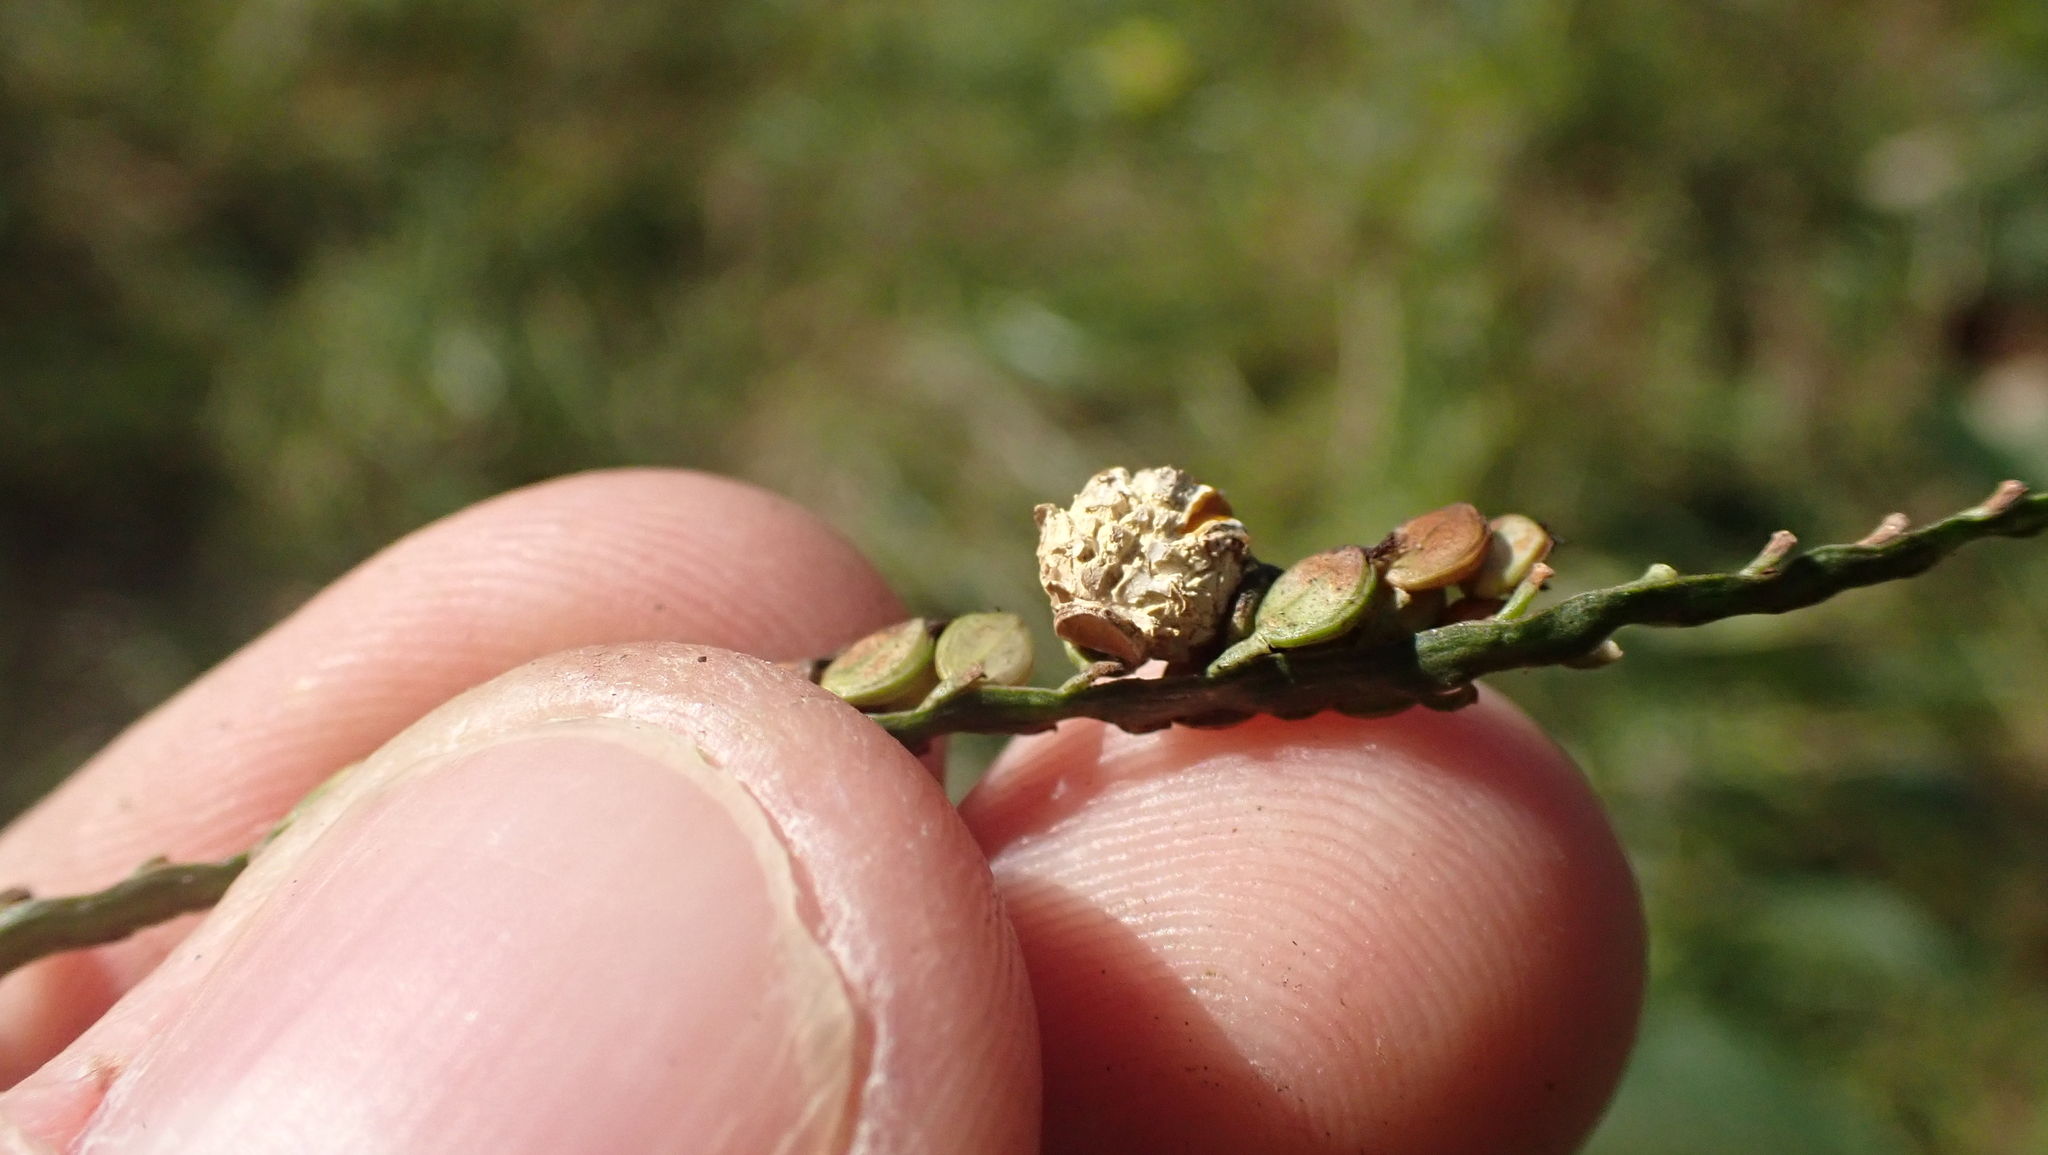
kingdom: Fungi
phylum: Ascomycota
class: Sordariomycetes
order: Hypocreales
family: Clavicipitaceae
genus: Claviceps
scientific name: Claviceps paspali
